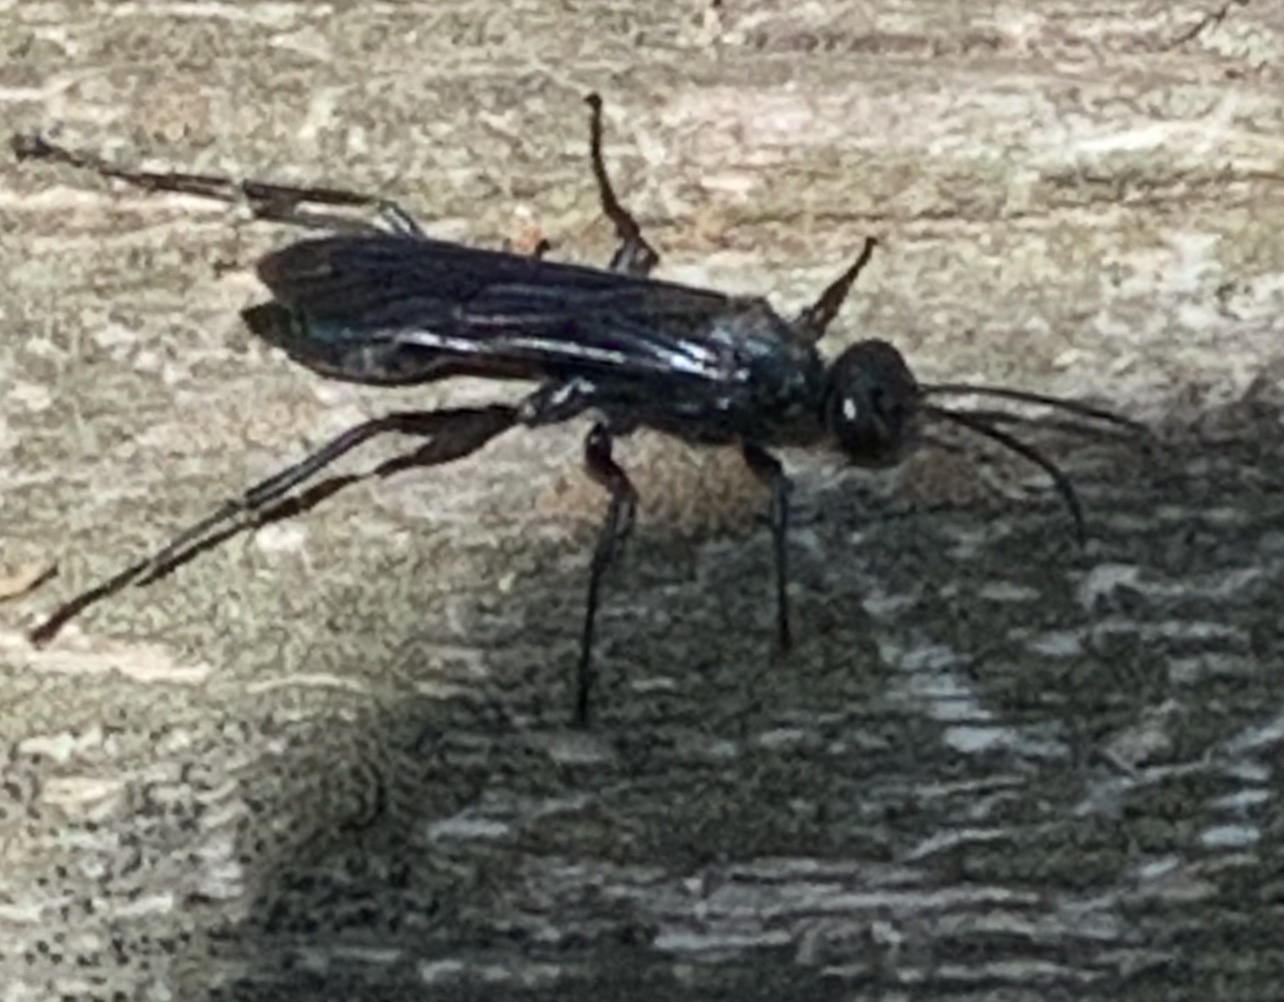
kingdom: Animalia
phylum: Arthropoda
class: Insecta
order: Hymenoptera
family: Sphecidae
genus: Chalybion
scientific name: Chalybion californicum
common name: Mud dauber
